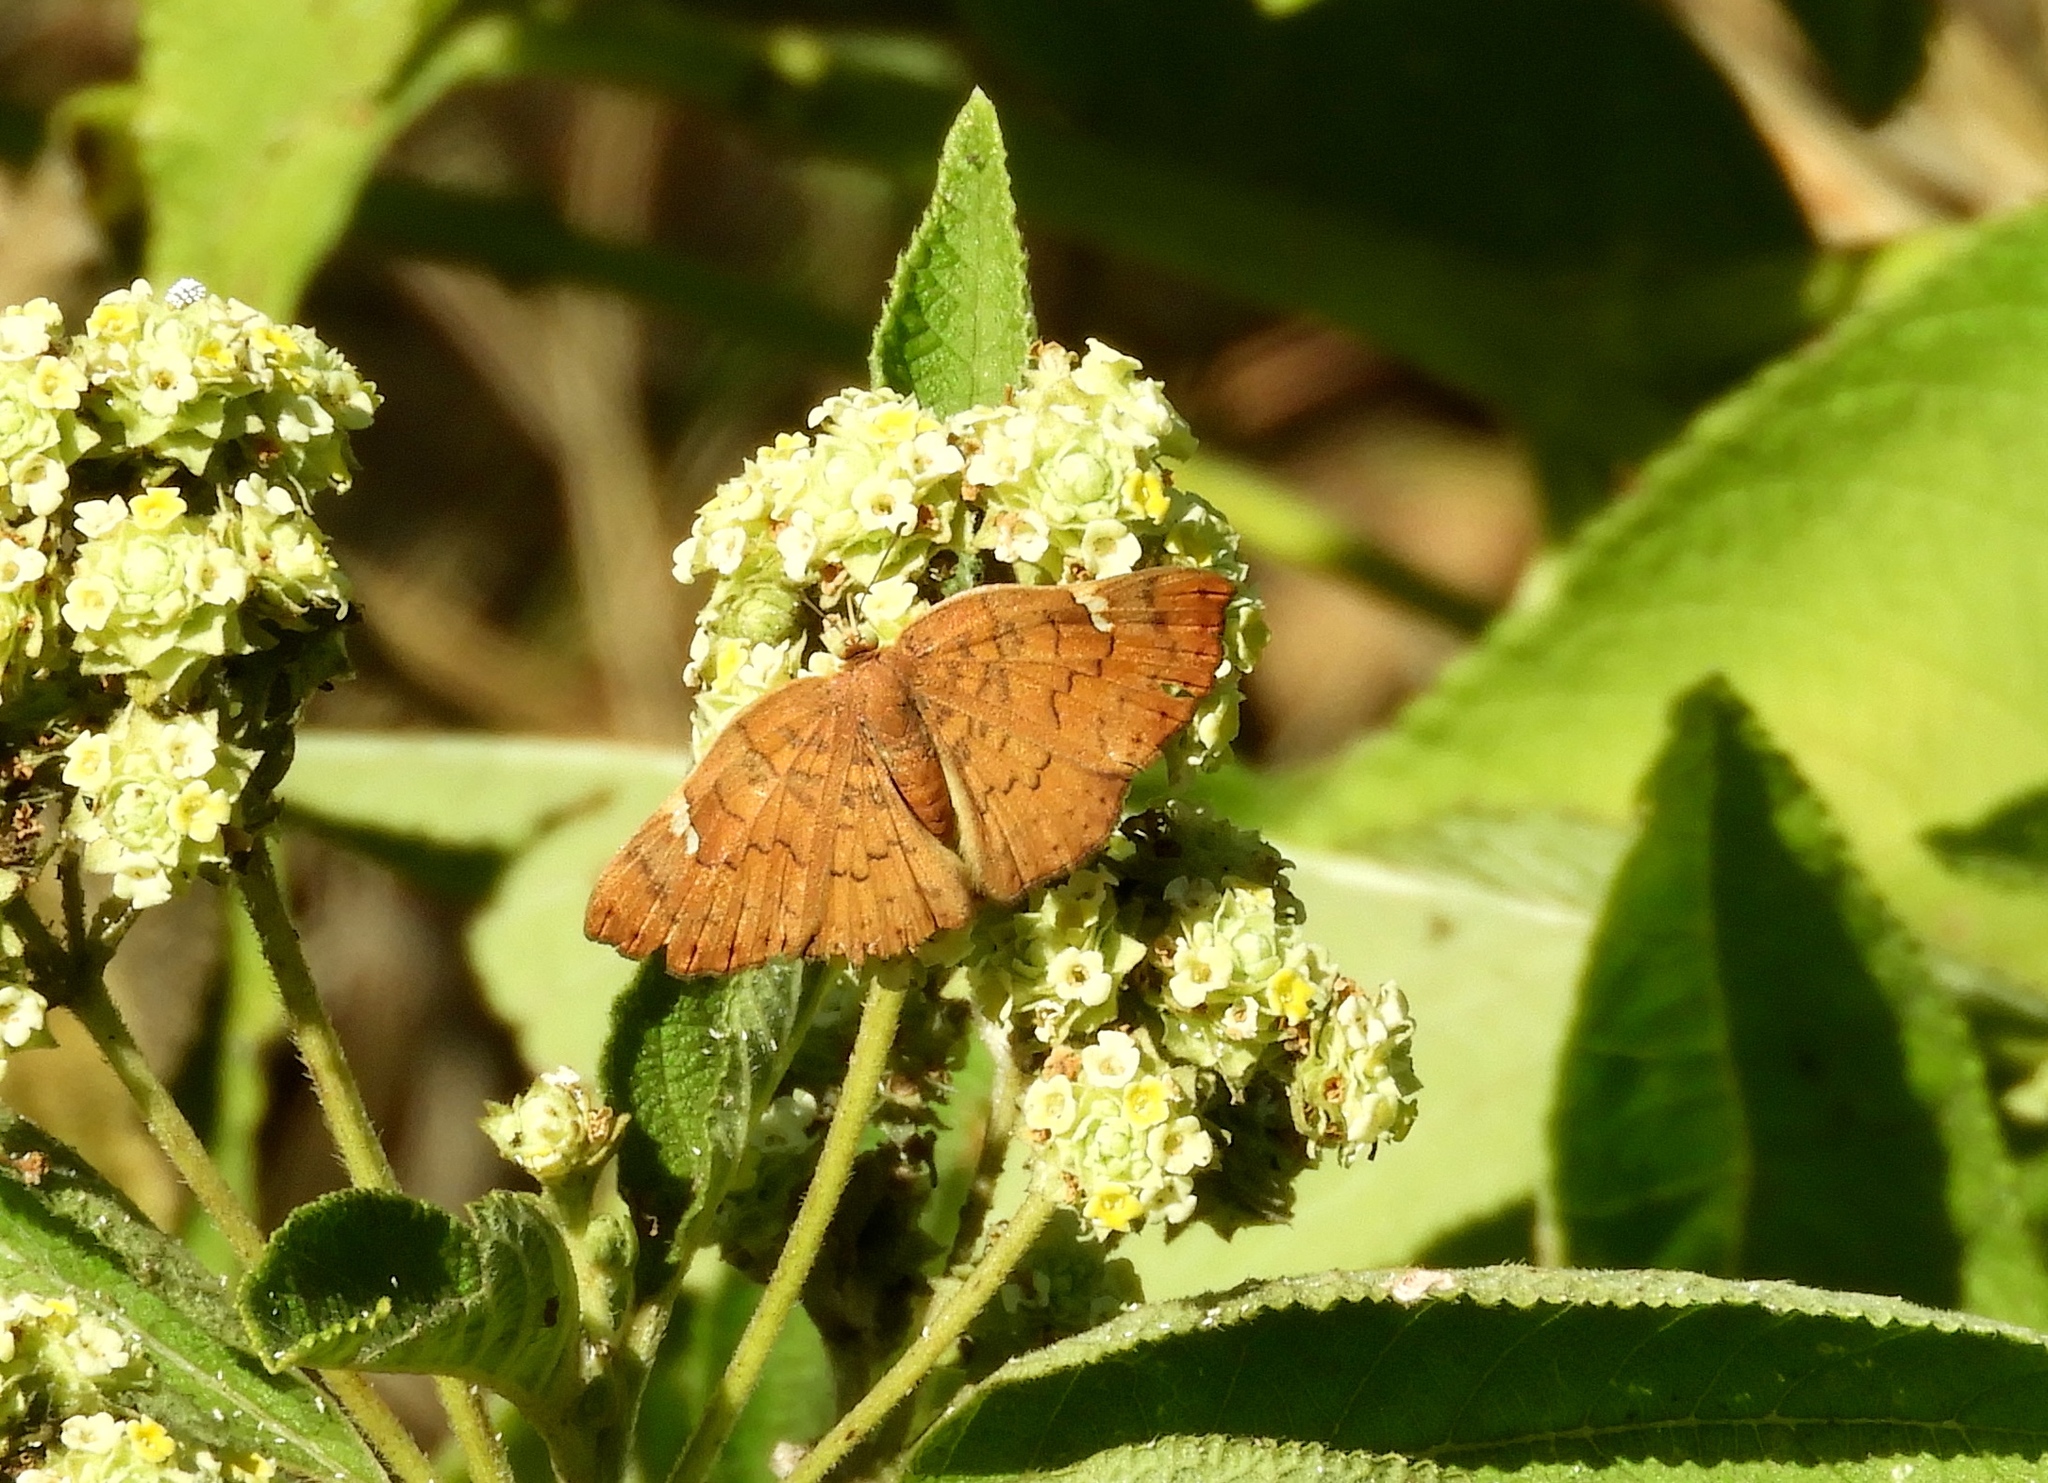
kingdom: Animalia
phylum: Arthropoda
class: Insecta
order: Lepidoptera
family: Riodinidae
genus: Curvie
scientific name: Curvie emesia
